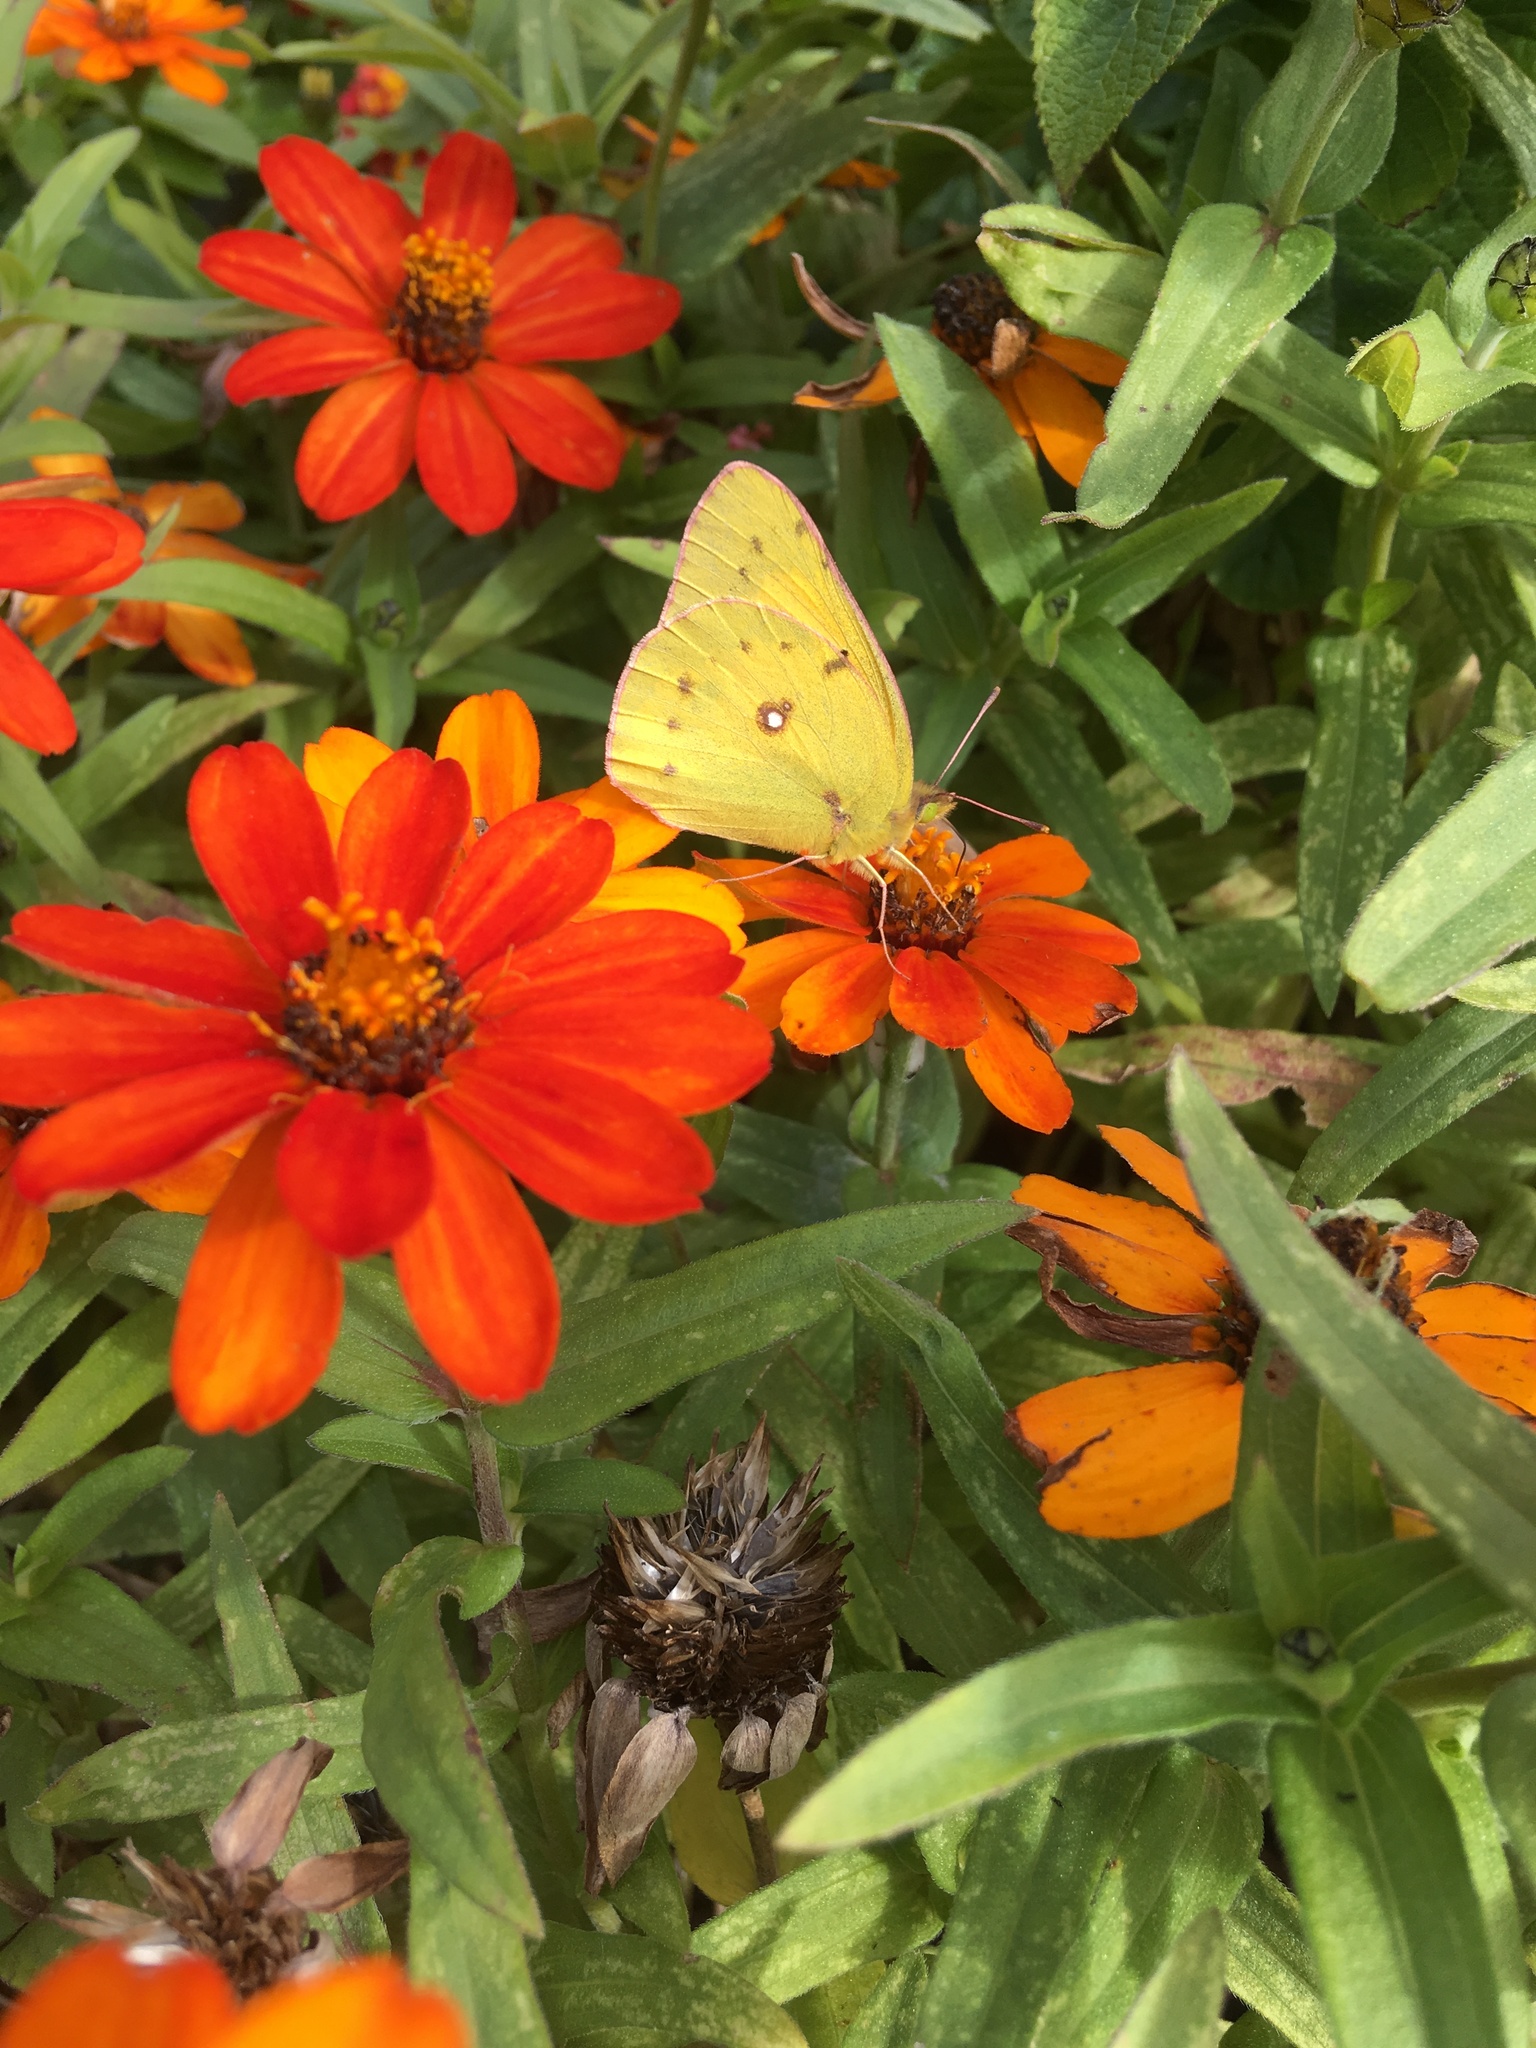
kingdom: Animalia
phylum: Arthropoda
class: Insecta
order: Lepidoptera
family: Pieridae
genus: Colias
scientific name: Colias eurytheme
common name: Alfalfa butterfly
